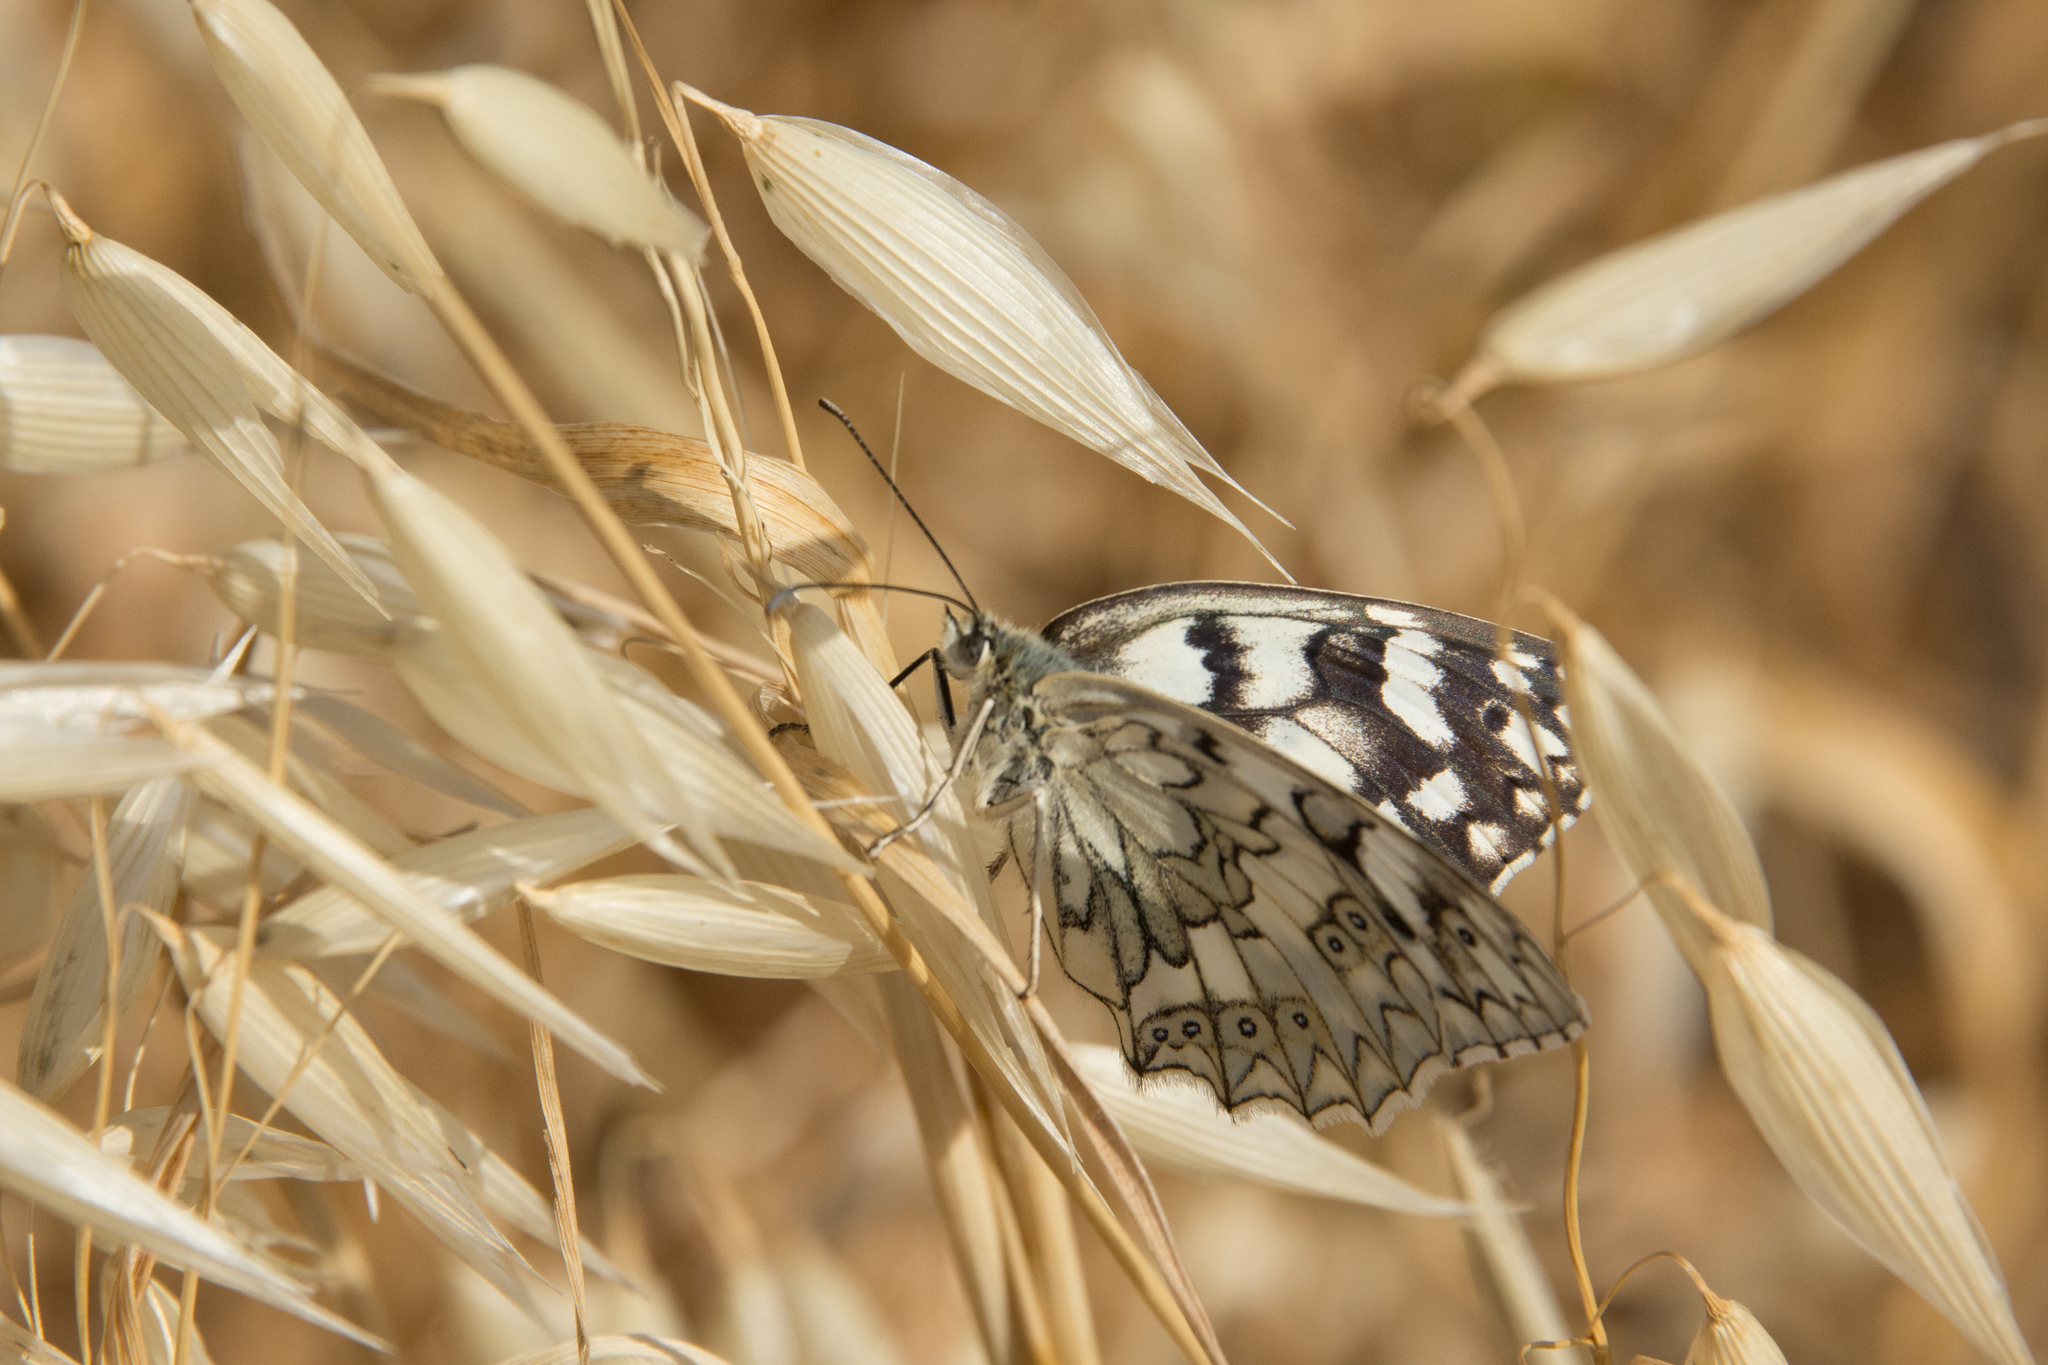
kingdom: Animalia
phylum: Arthropoda
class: Insecta
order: Lepidoptera
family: Nymphalidae
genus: Melanargia
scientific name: Melanargia japygia
